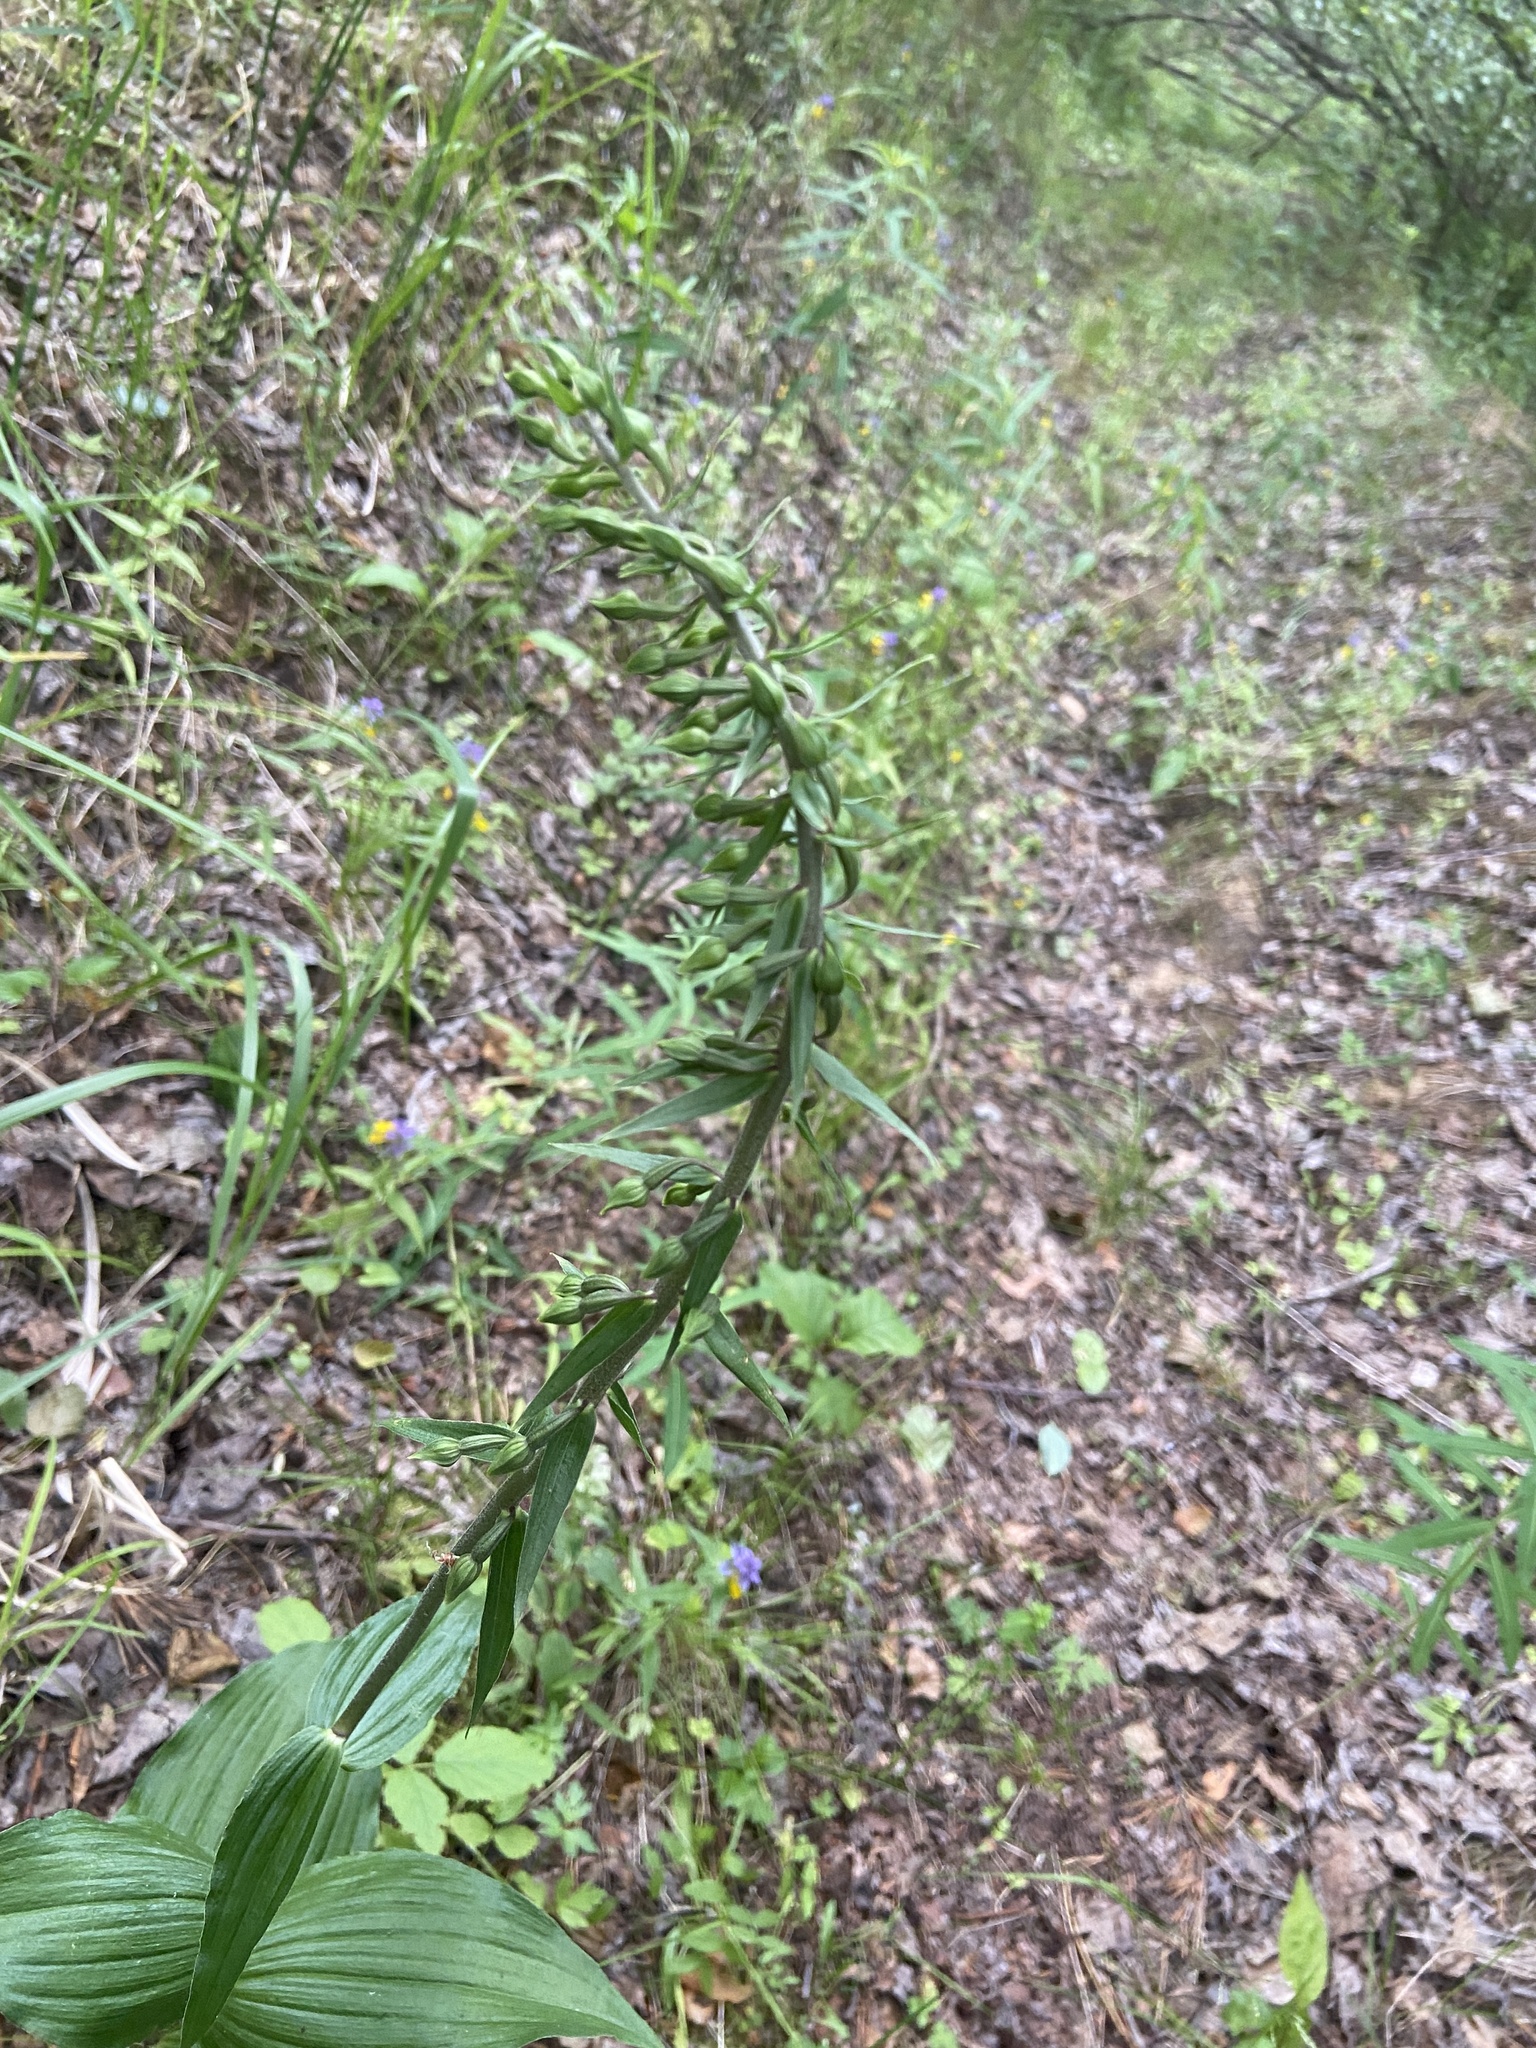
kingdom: Plantae
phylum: Tracheophyta
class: Liliopsida
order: Asparagales
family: Orchidaceae
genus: Epipactis
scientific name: Epipactis helleborine
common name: Broad-leaved helleborine
